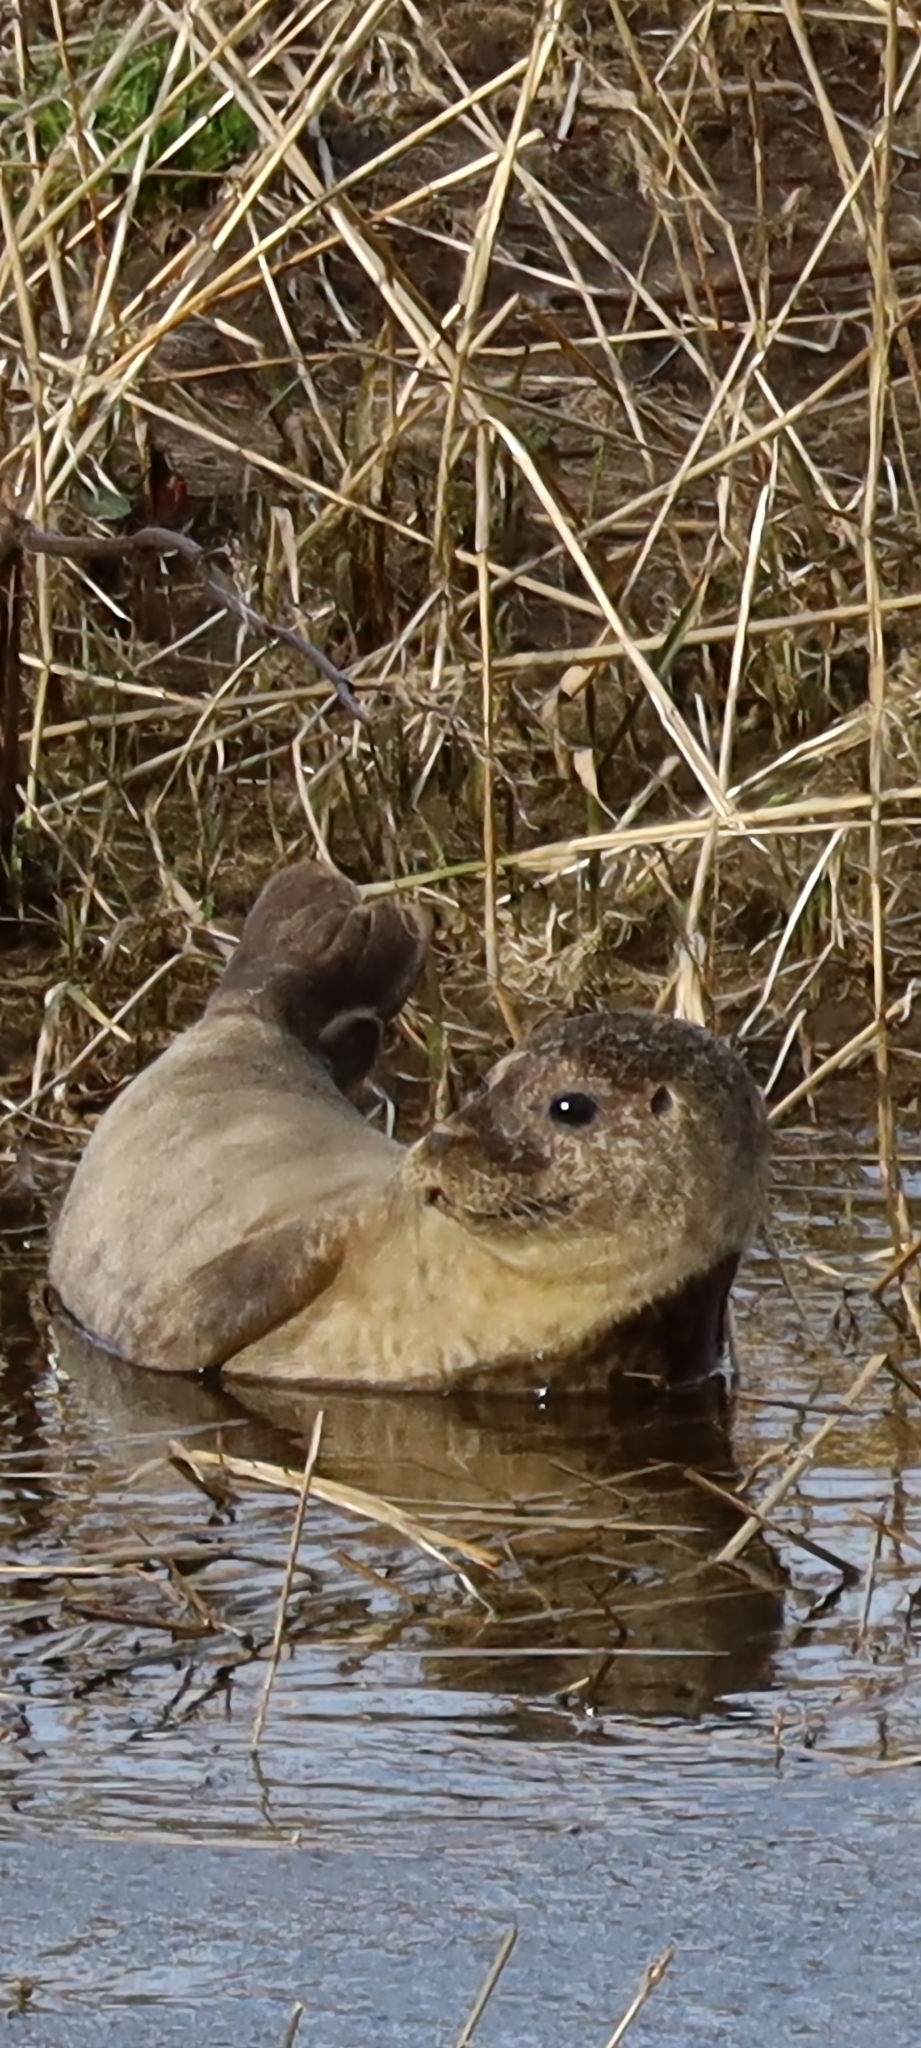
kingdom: Animalia
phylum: Chordata
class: Mammalia
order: Carnivora
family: Phocidae
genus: Phoca
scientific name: Phoca vitulina
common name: Harbor seal
